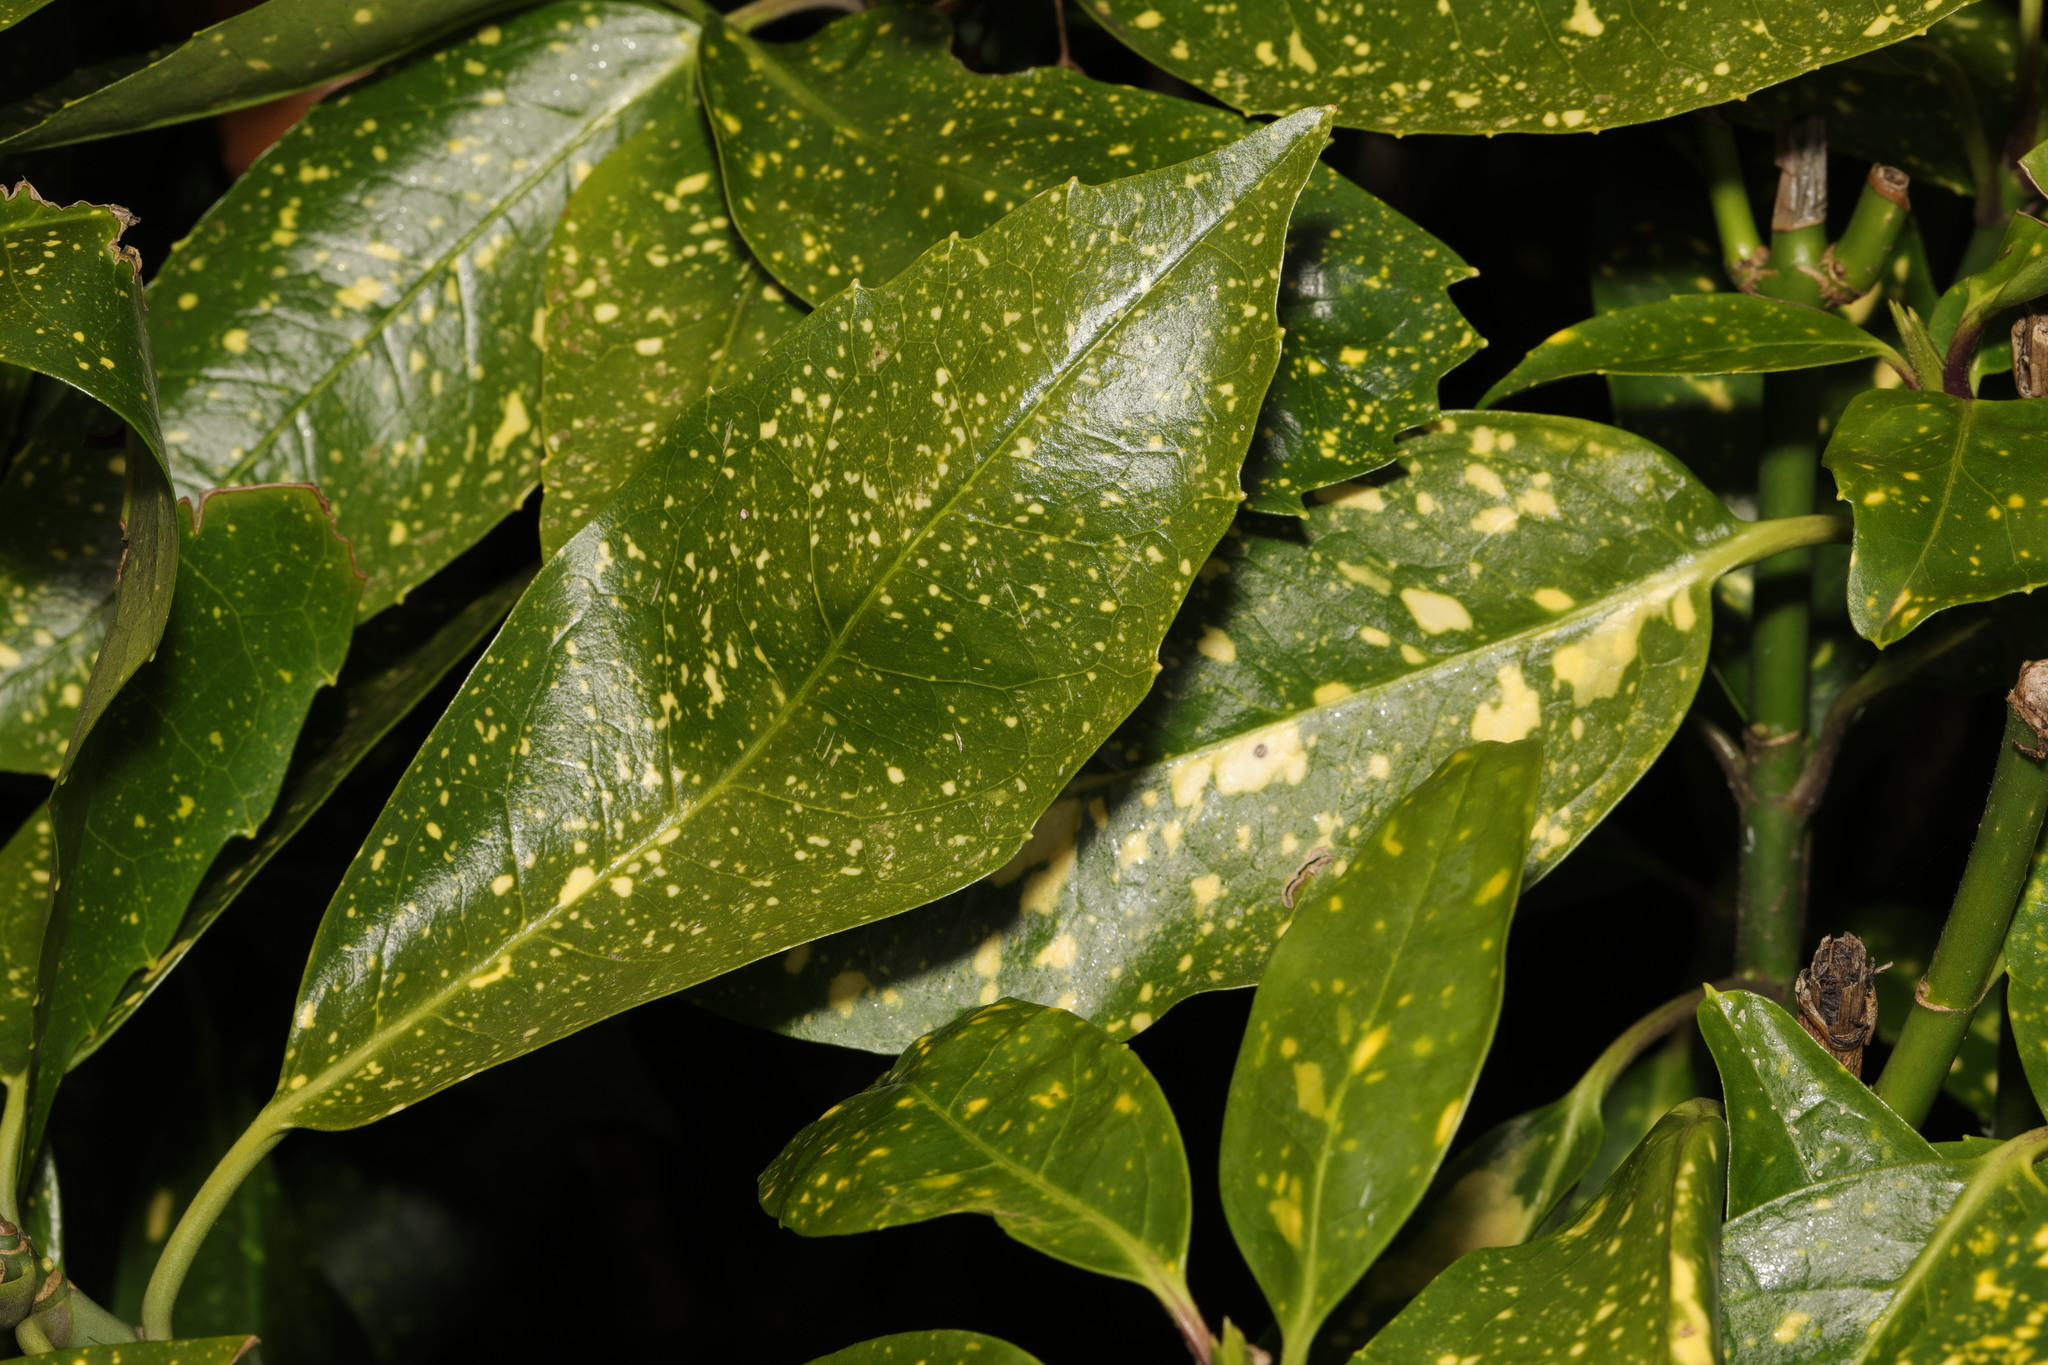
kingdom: Plantae
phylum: Tracheophyta
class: Magnoliopsida
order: Garryales
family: Garryaceae
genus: Aucuba
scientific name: Aucuba japonica
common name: Spotted-laurel
